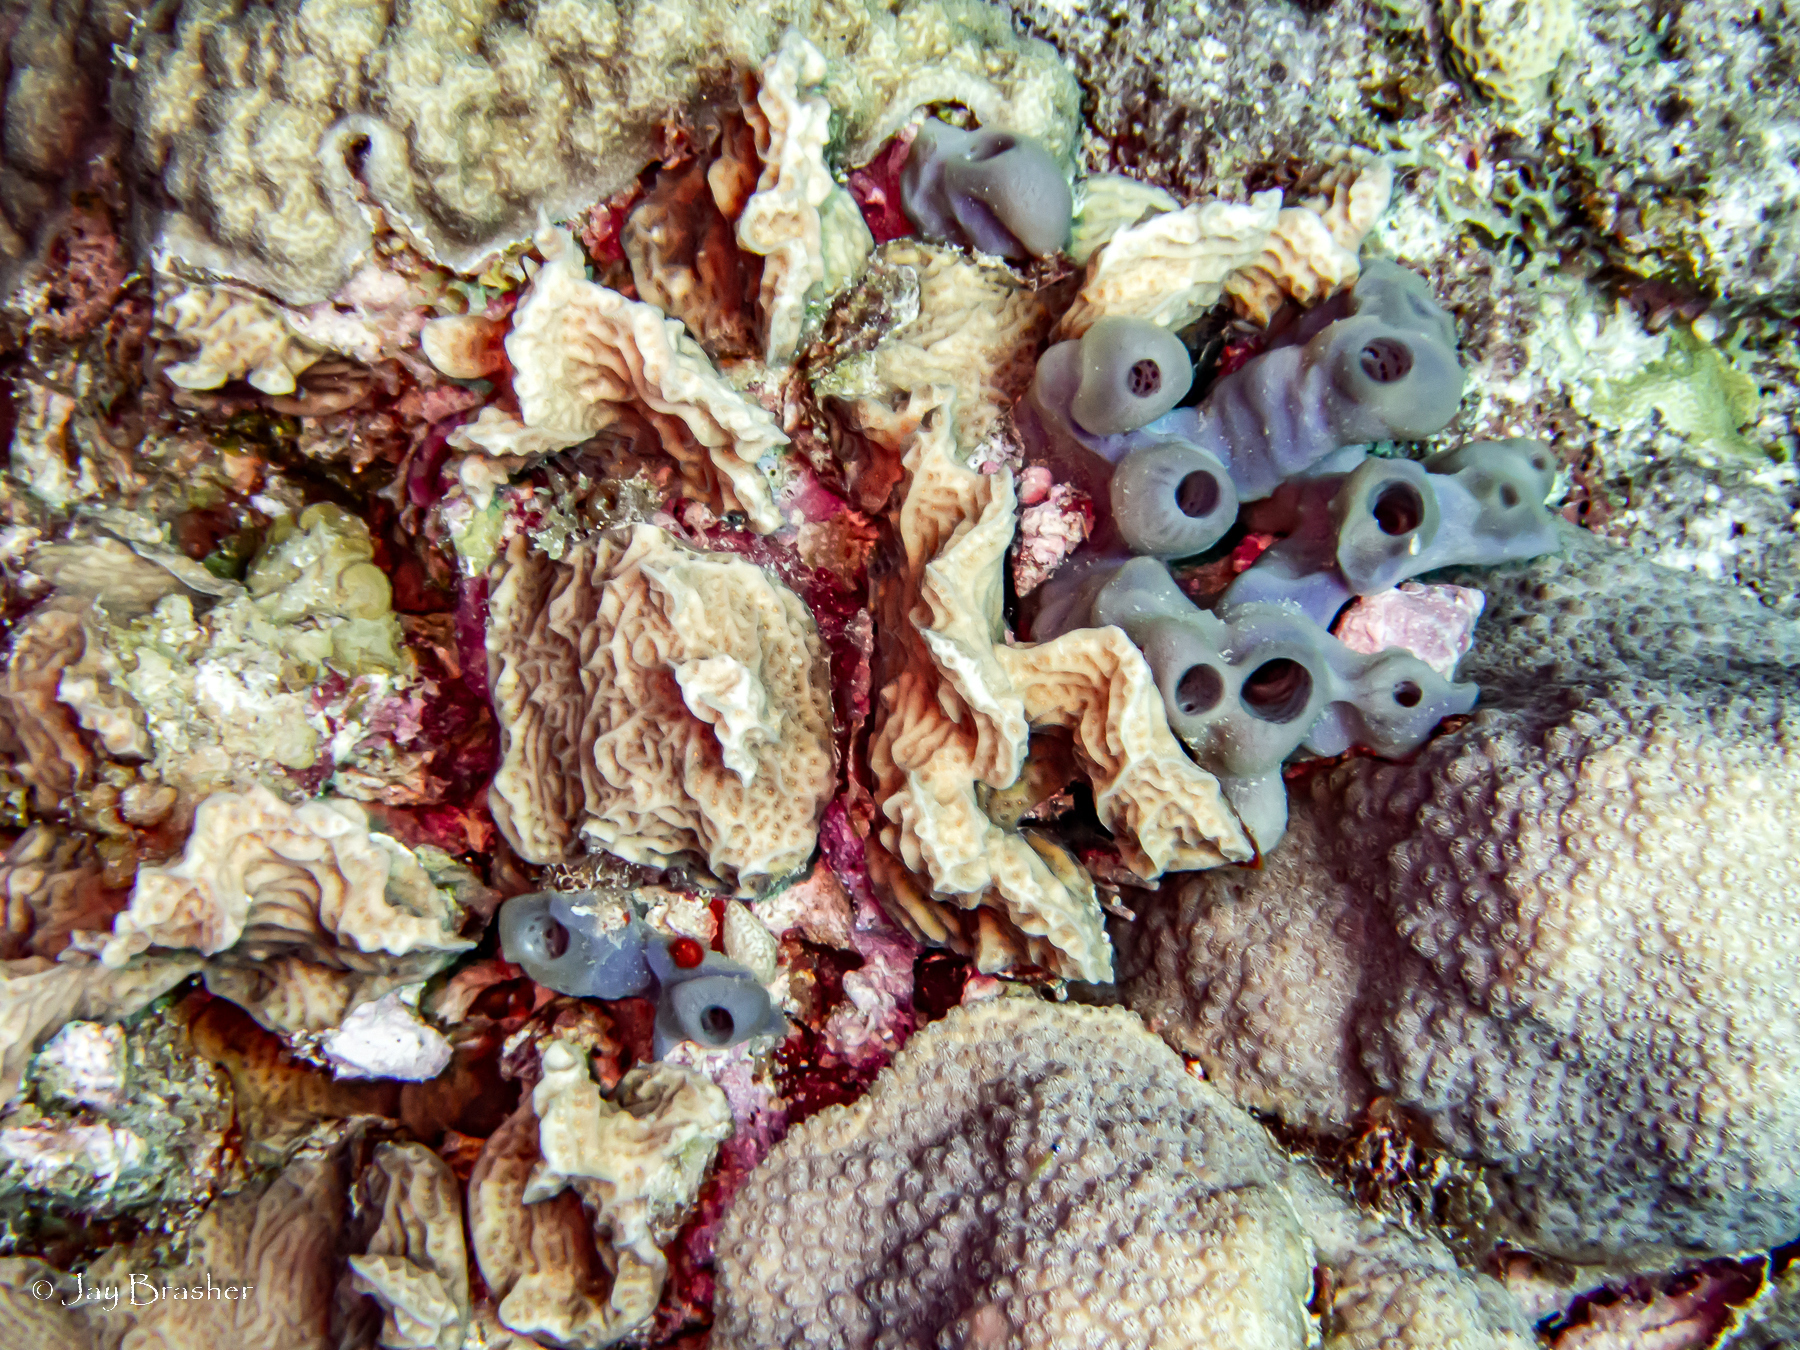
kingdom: Animalia
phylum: Porifera
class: Demospongiae
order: Haplosclerida
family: Callyspongiidae
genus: Callyspongia
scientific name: Callyspongia fallax
